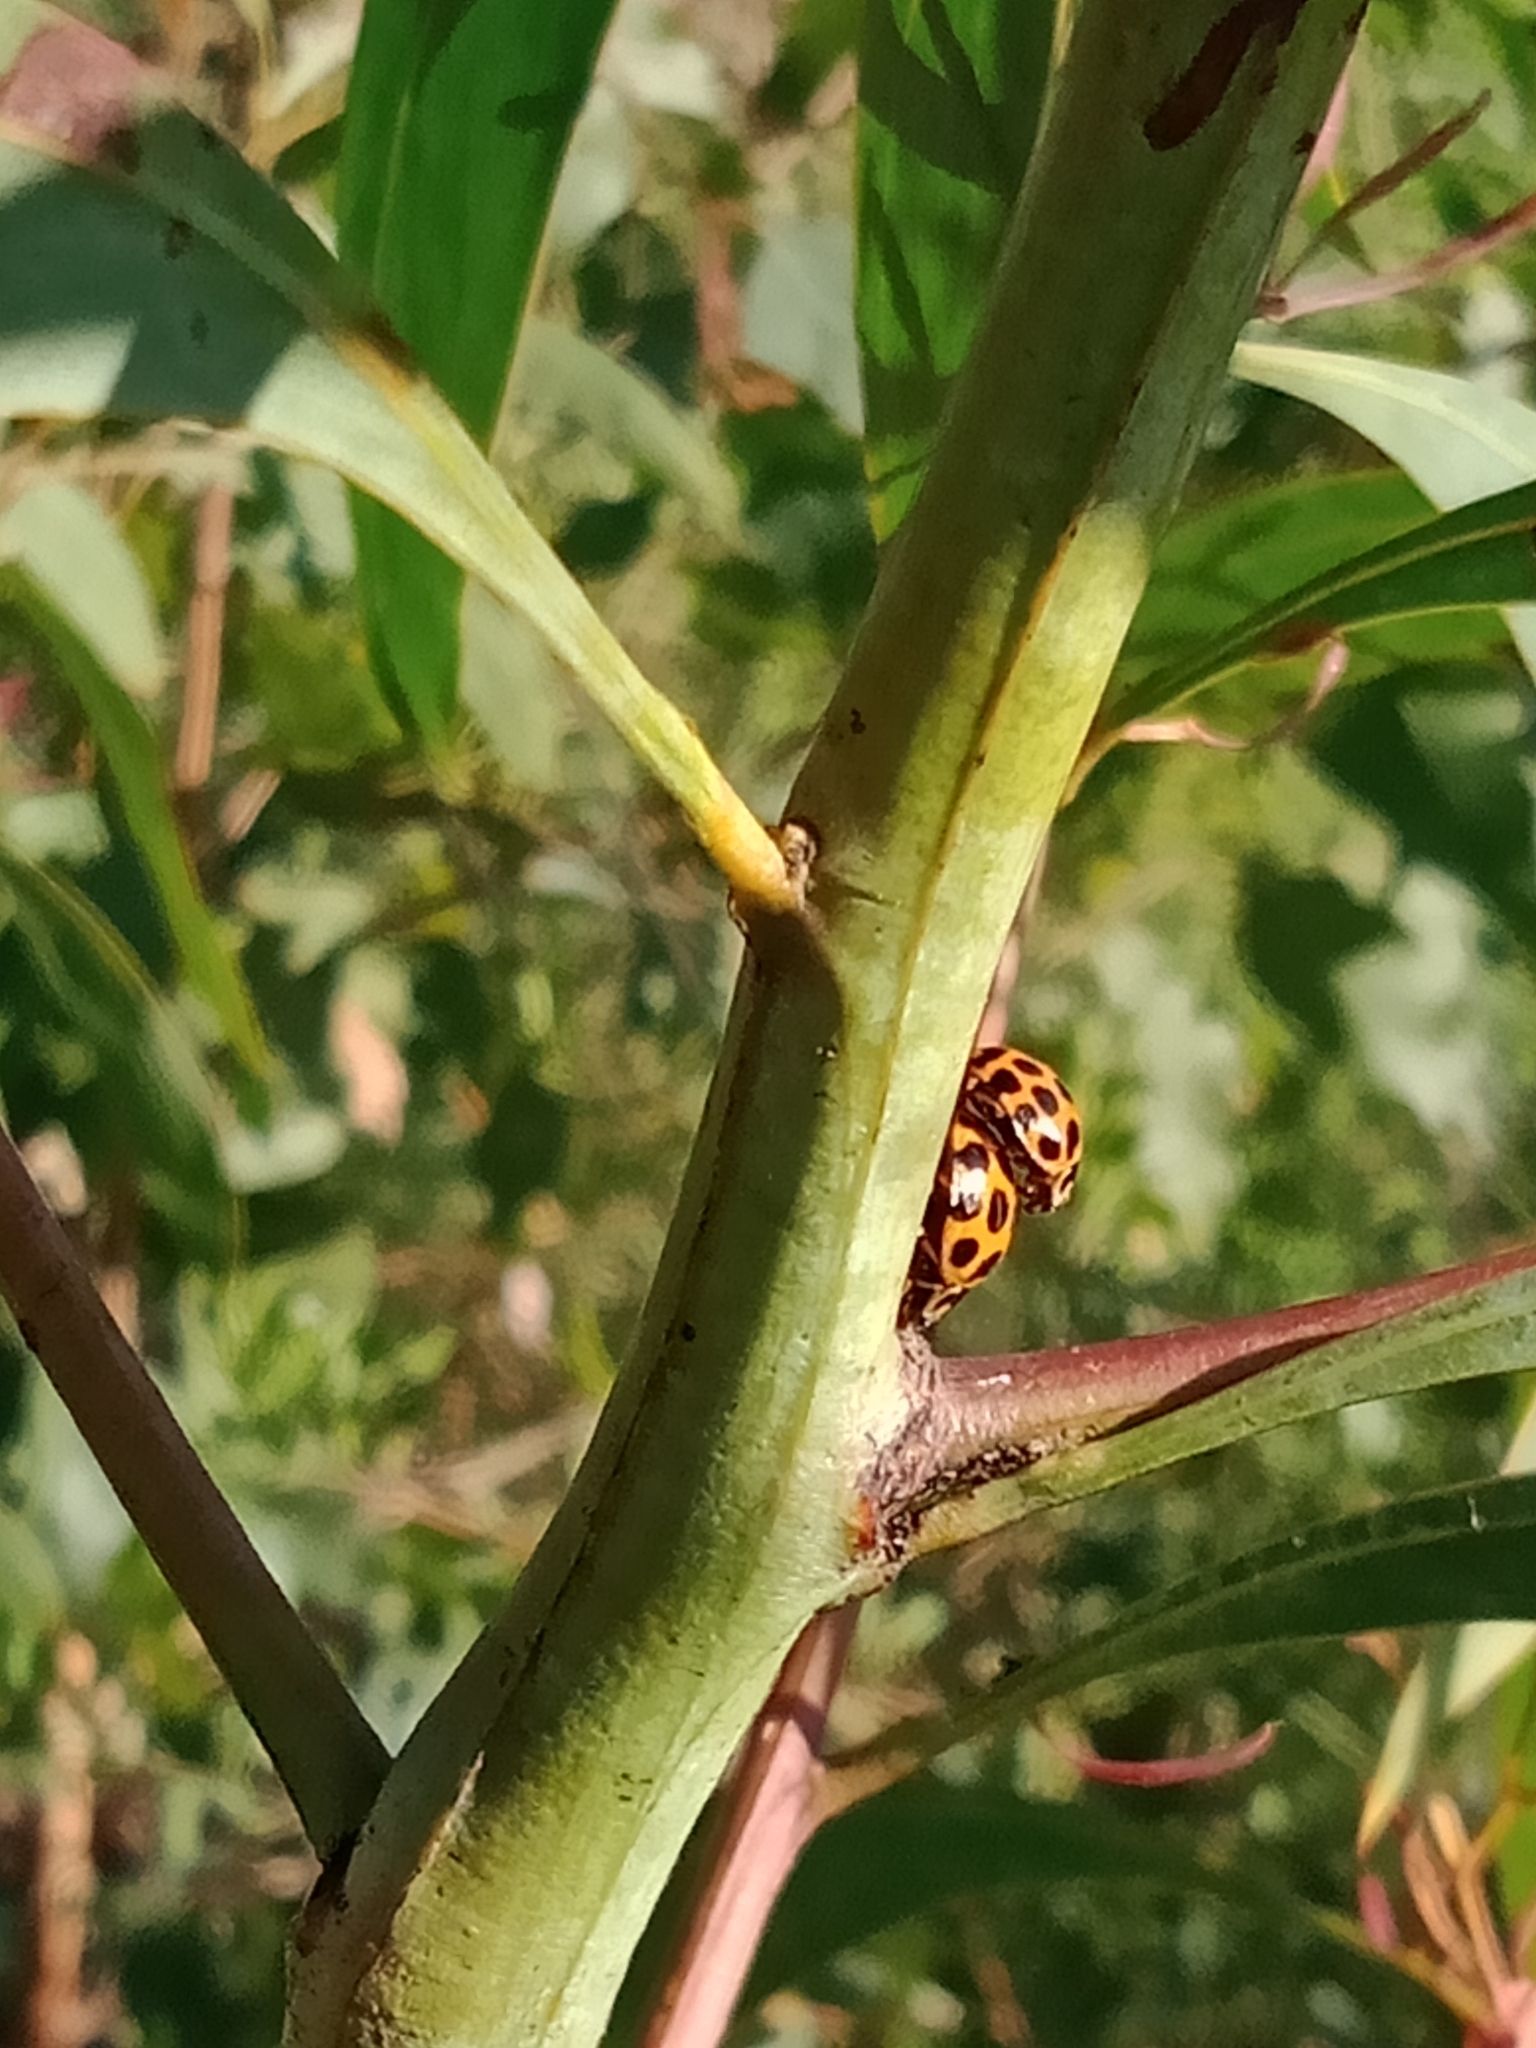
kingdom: Animalia
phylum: Arthropoda
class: Insecta
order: Coleoptera
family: Coccinellidae
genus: Harmonia
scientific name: Harmonia conformis
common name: Common spotted ladybird beetle
